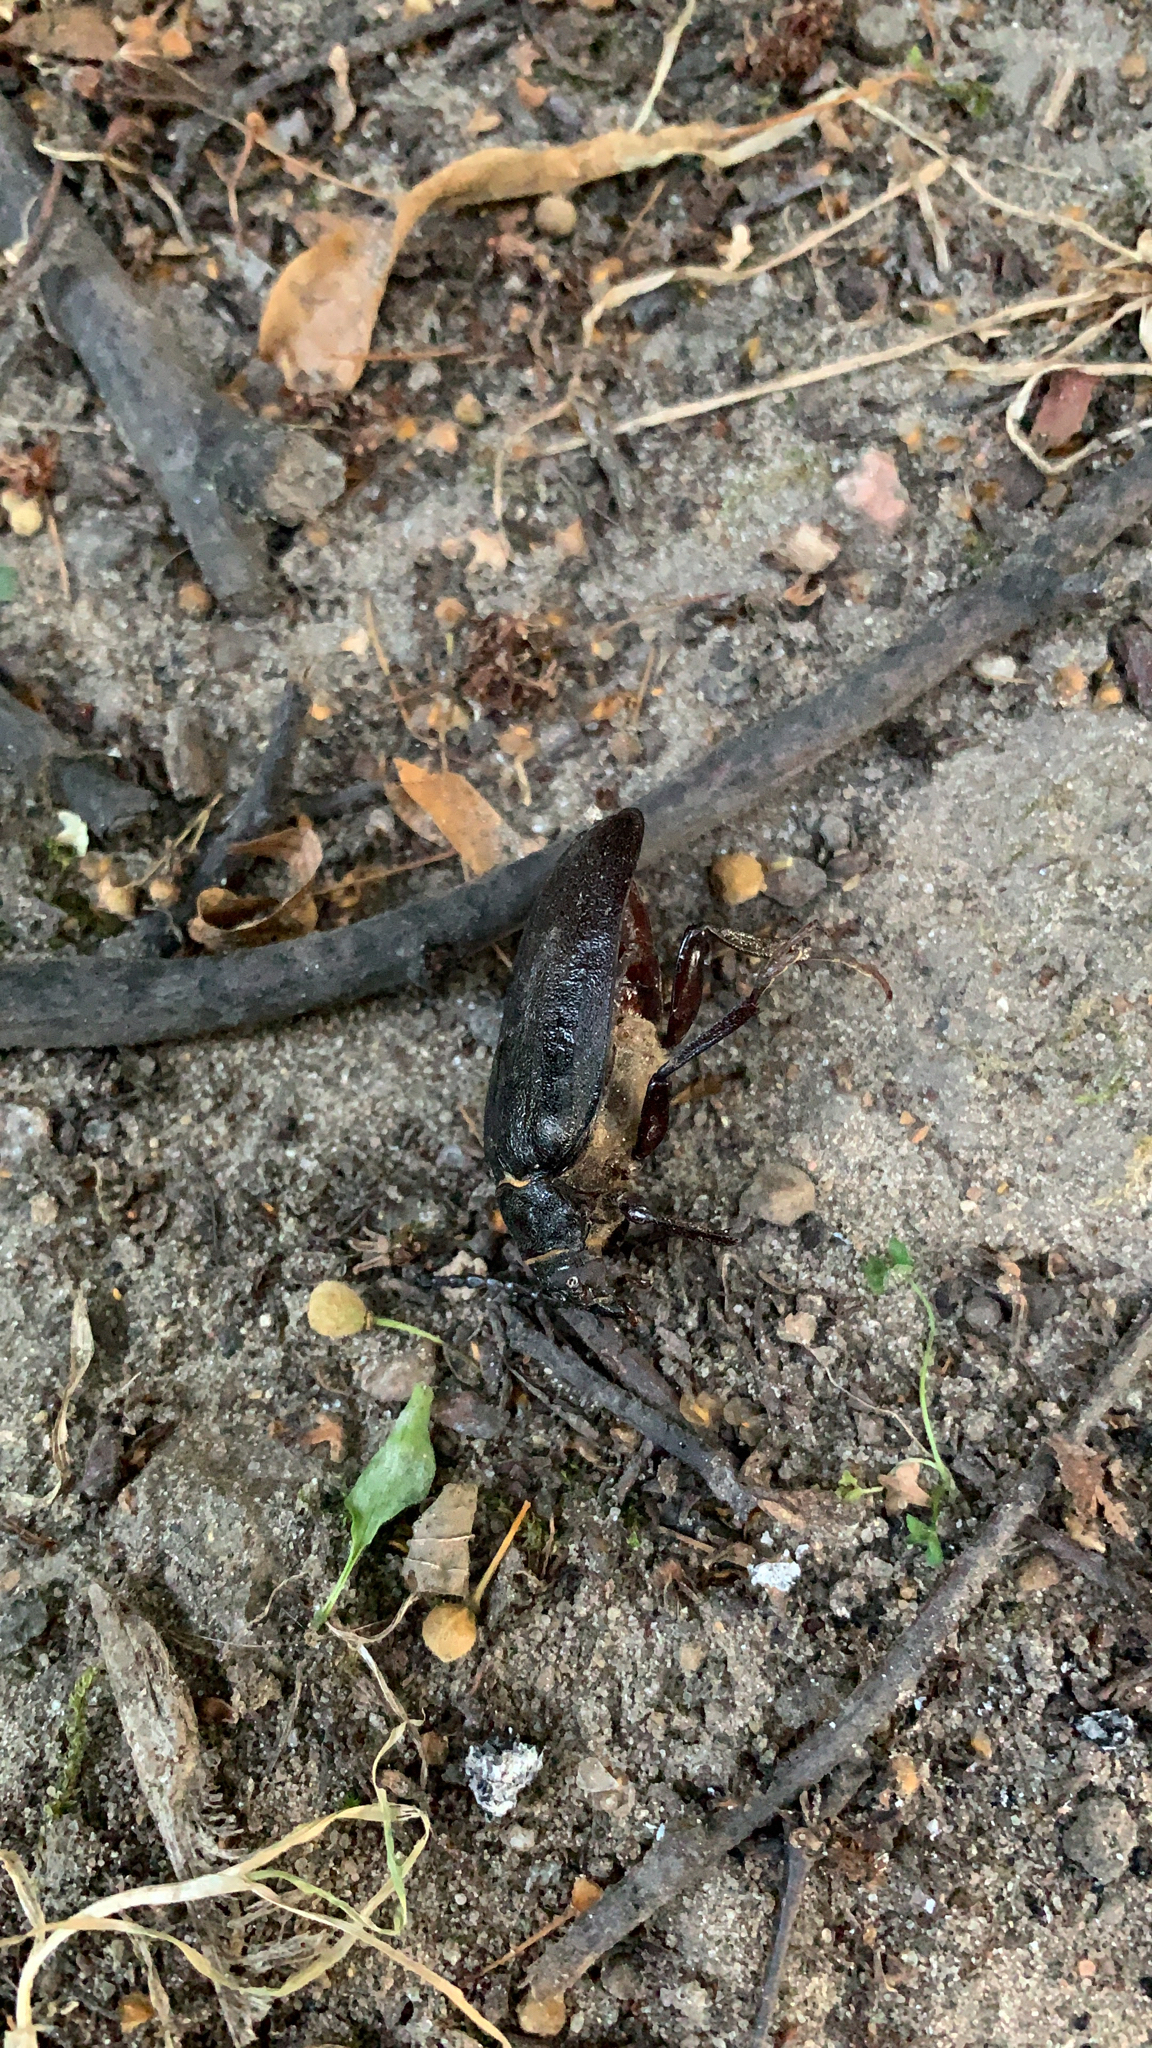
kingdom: Animalia
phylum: Arthropoda
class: Insecta
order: Coleoptera
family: Cerambycidae
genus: Prionus
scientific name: Prionus coriarius
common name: Tanner beetle
